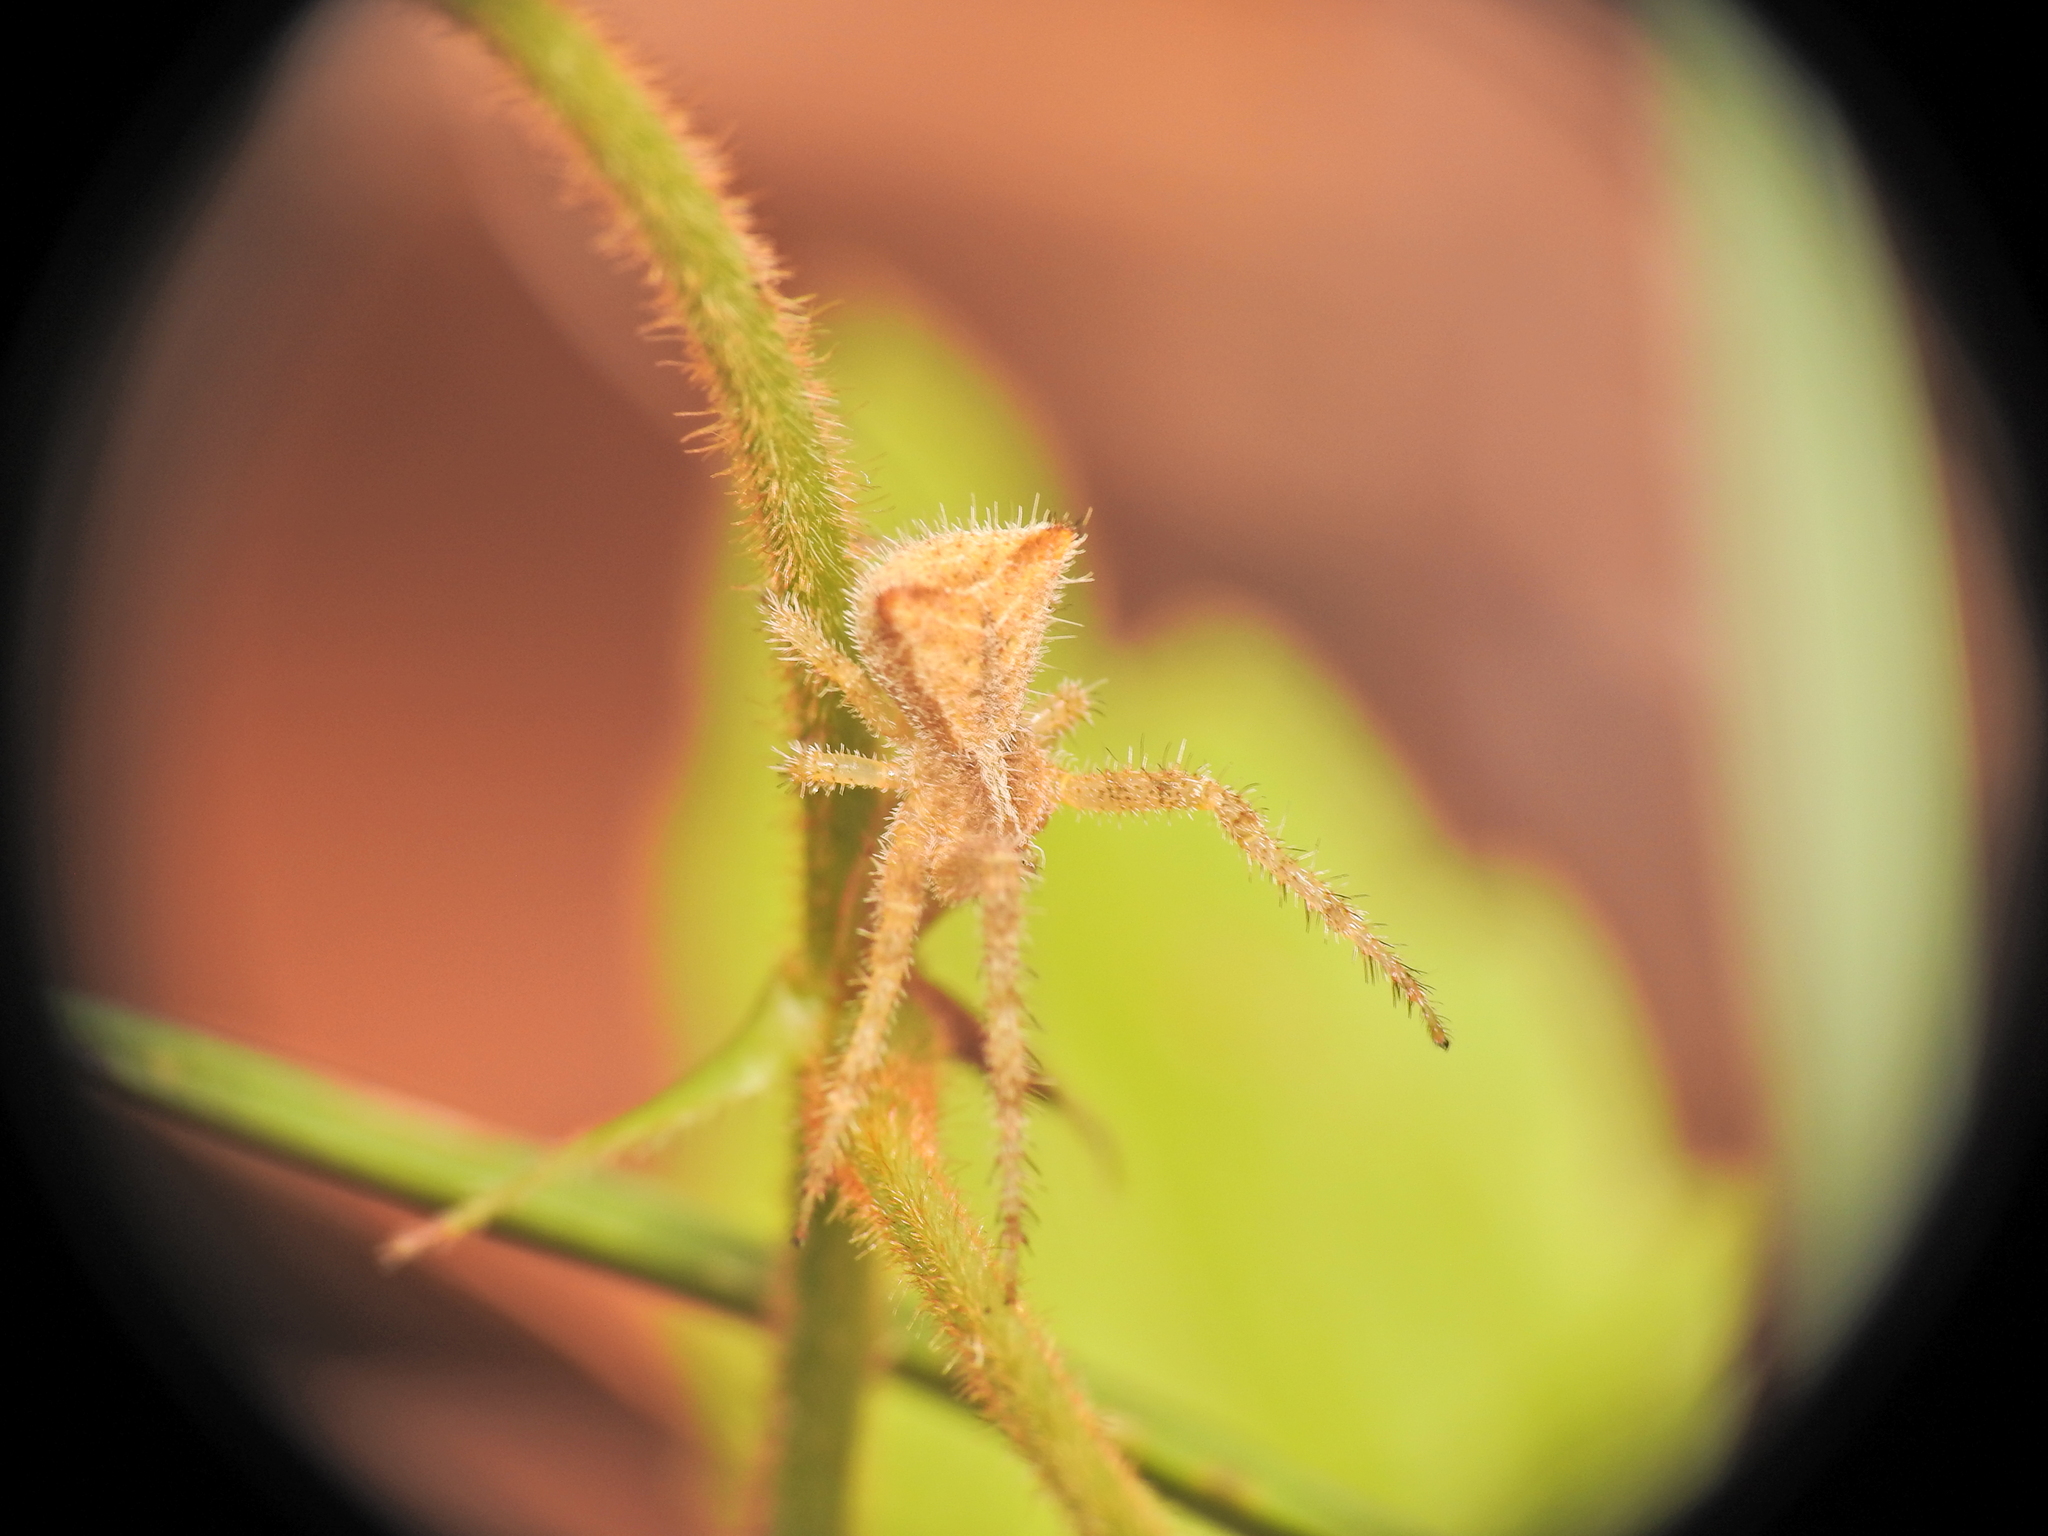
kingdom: Animalia
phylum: Arthropoda
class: Arachnida
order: Araneae
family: Thomisidae
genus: Sidymella
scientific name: Sidymella hirsuta
